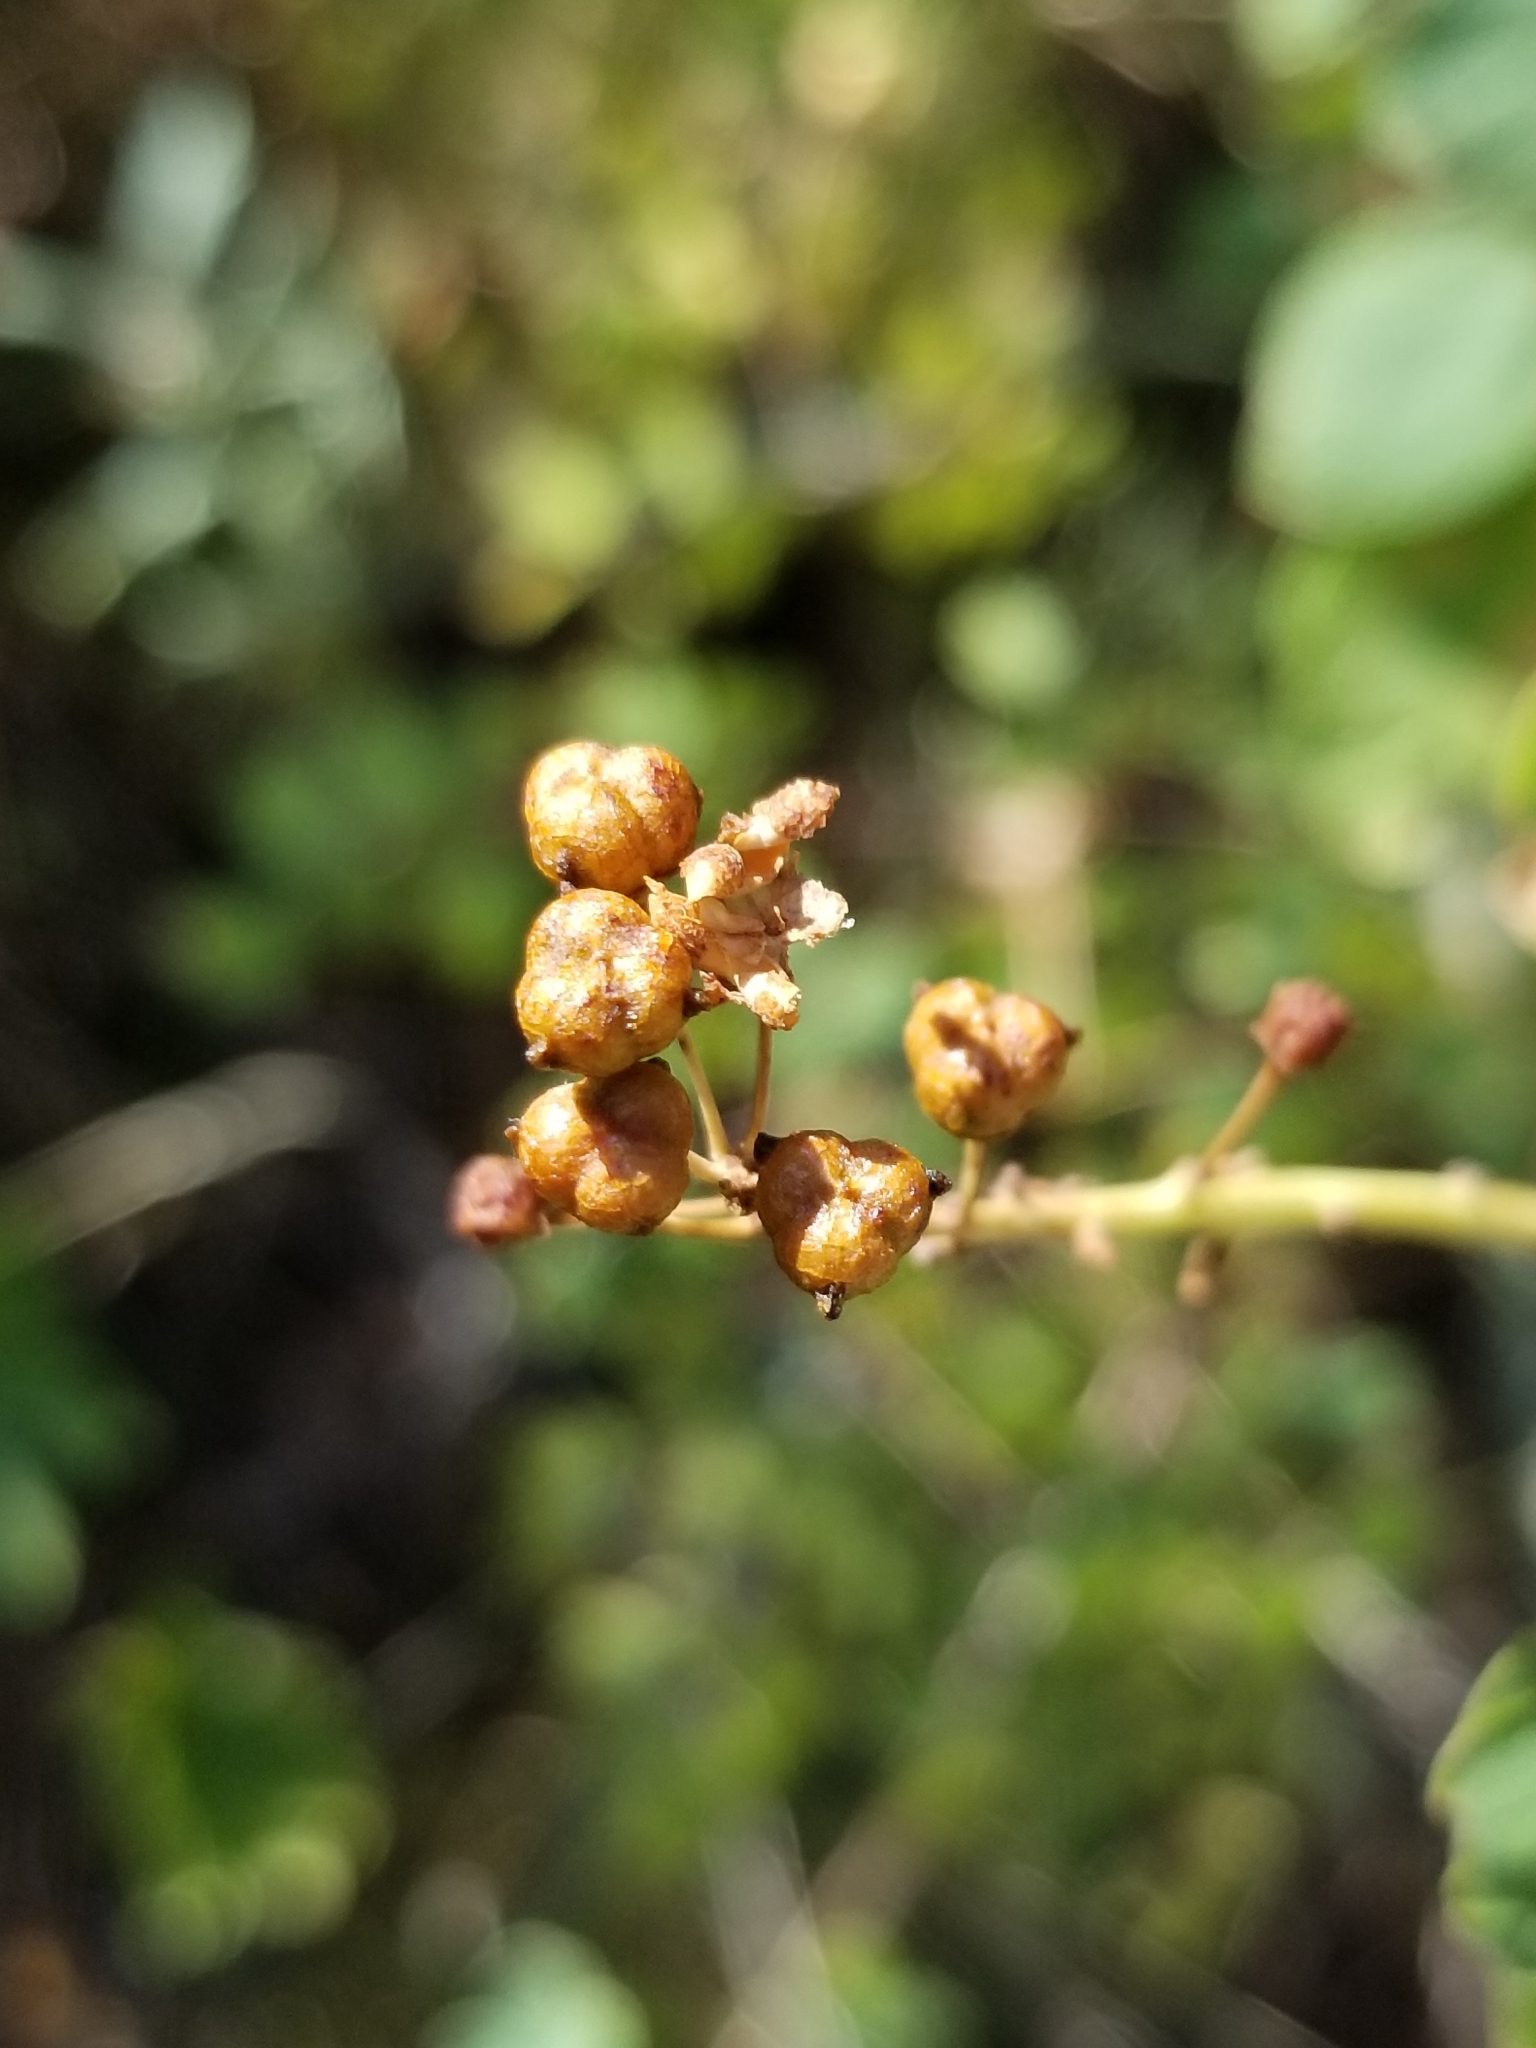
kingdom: Plantae
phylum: Tracheophyta
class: Magnoliopsida
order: Rosales
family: Rhamnaceae
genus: Ceanothus
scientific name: Ceanothus fendleri
